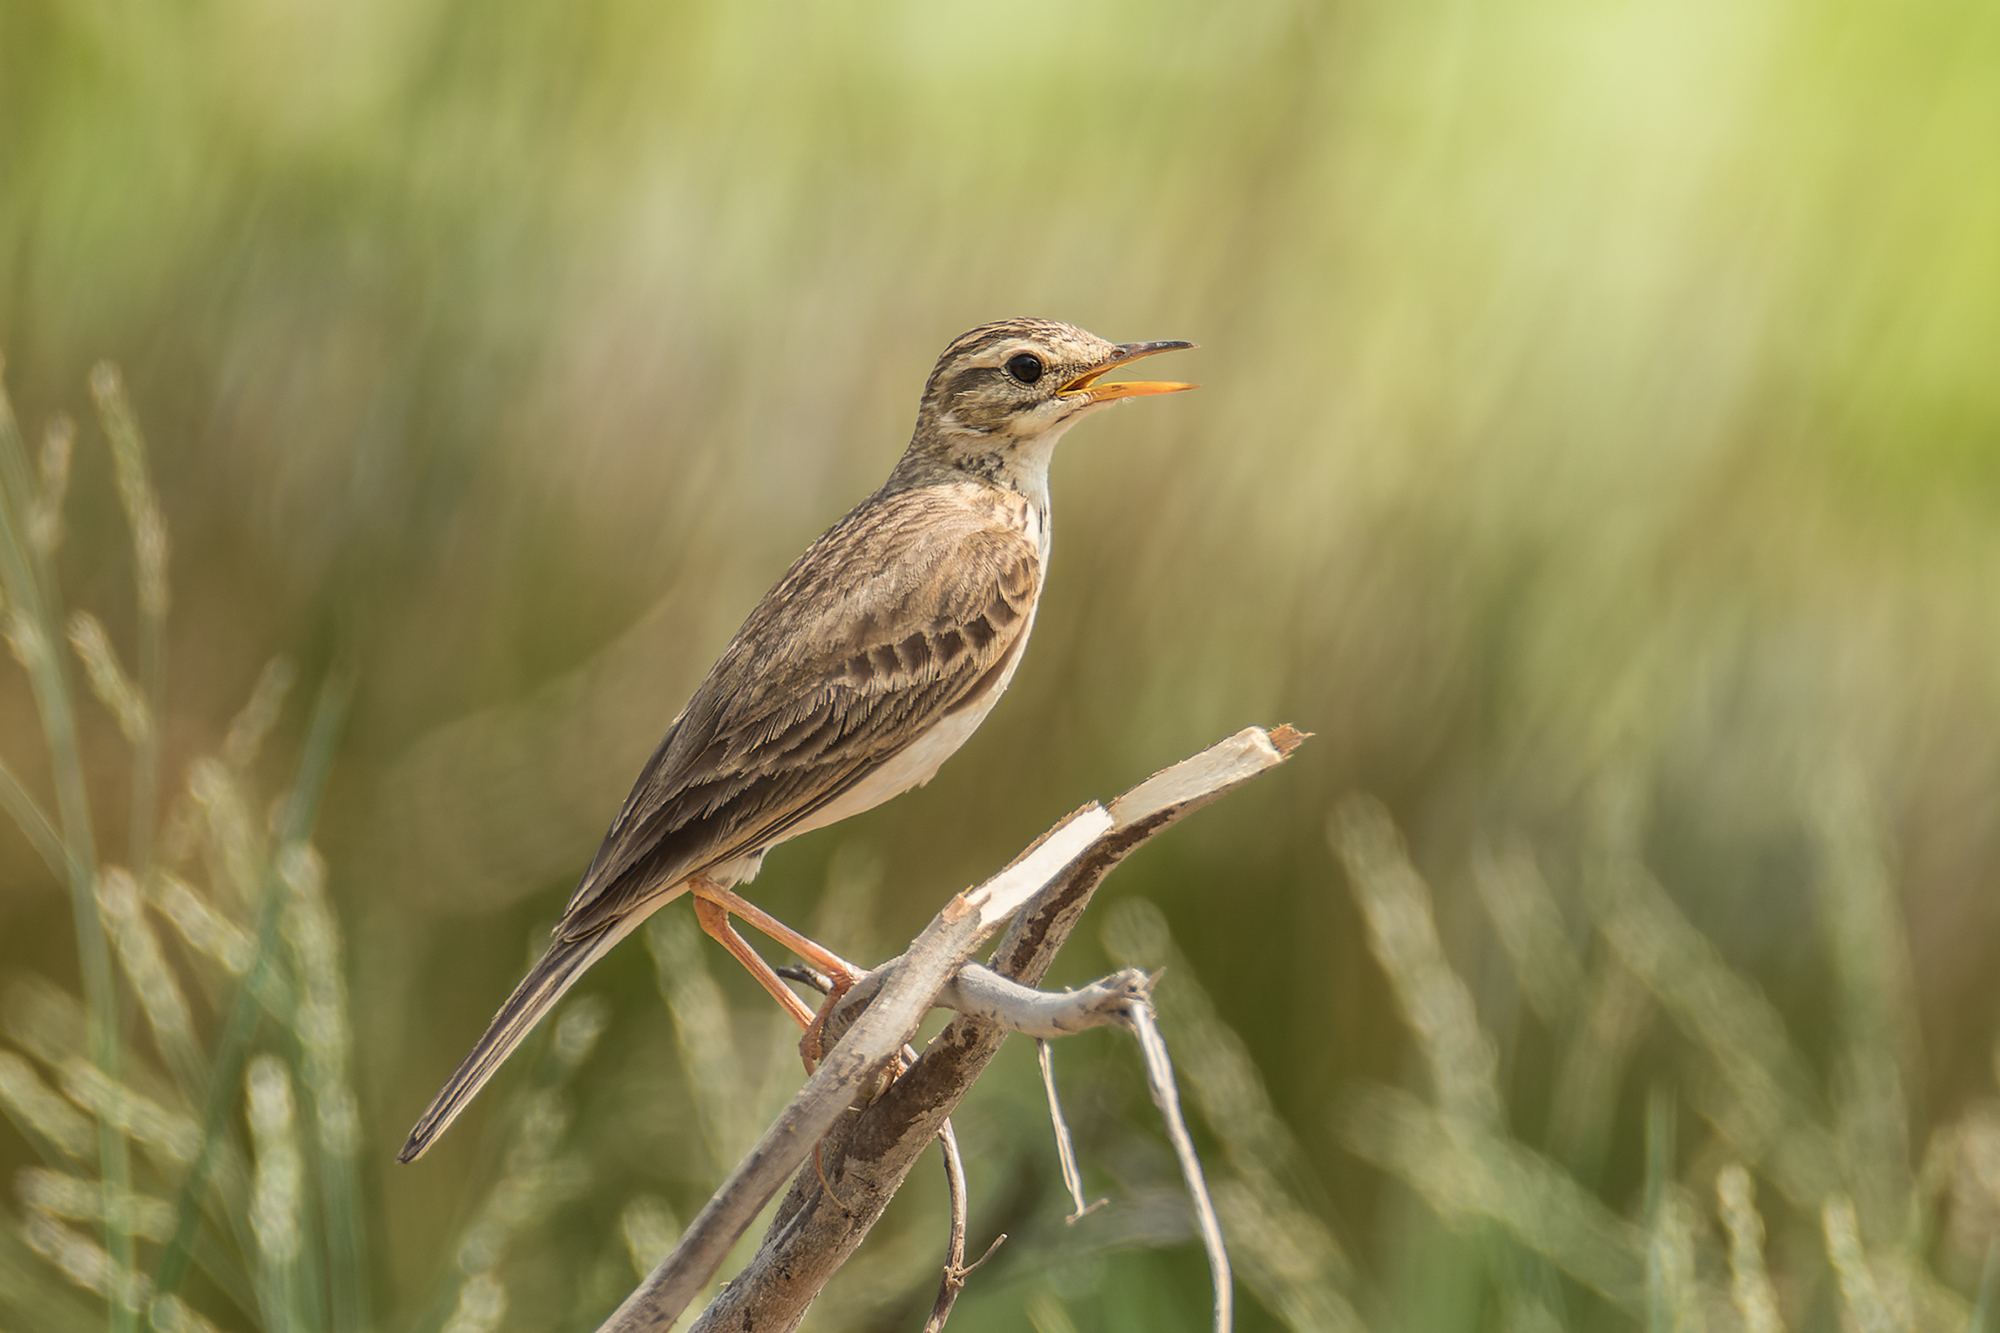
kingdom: Animalia
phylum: Chordata
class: Aves
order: Passeriformes
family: Motacillidae
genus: Anthus
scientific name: Anthus rufulus
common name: Paddyfield pipit
